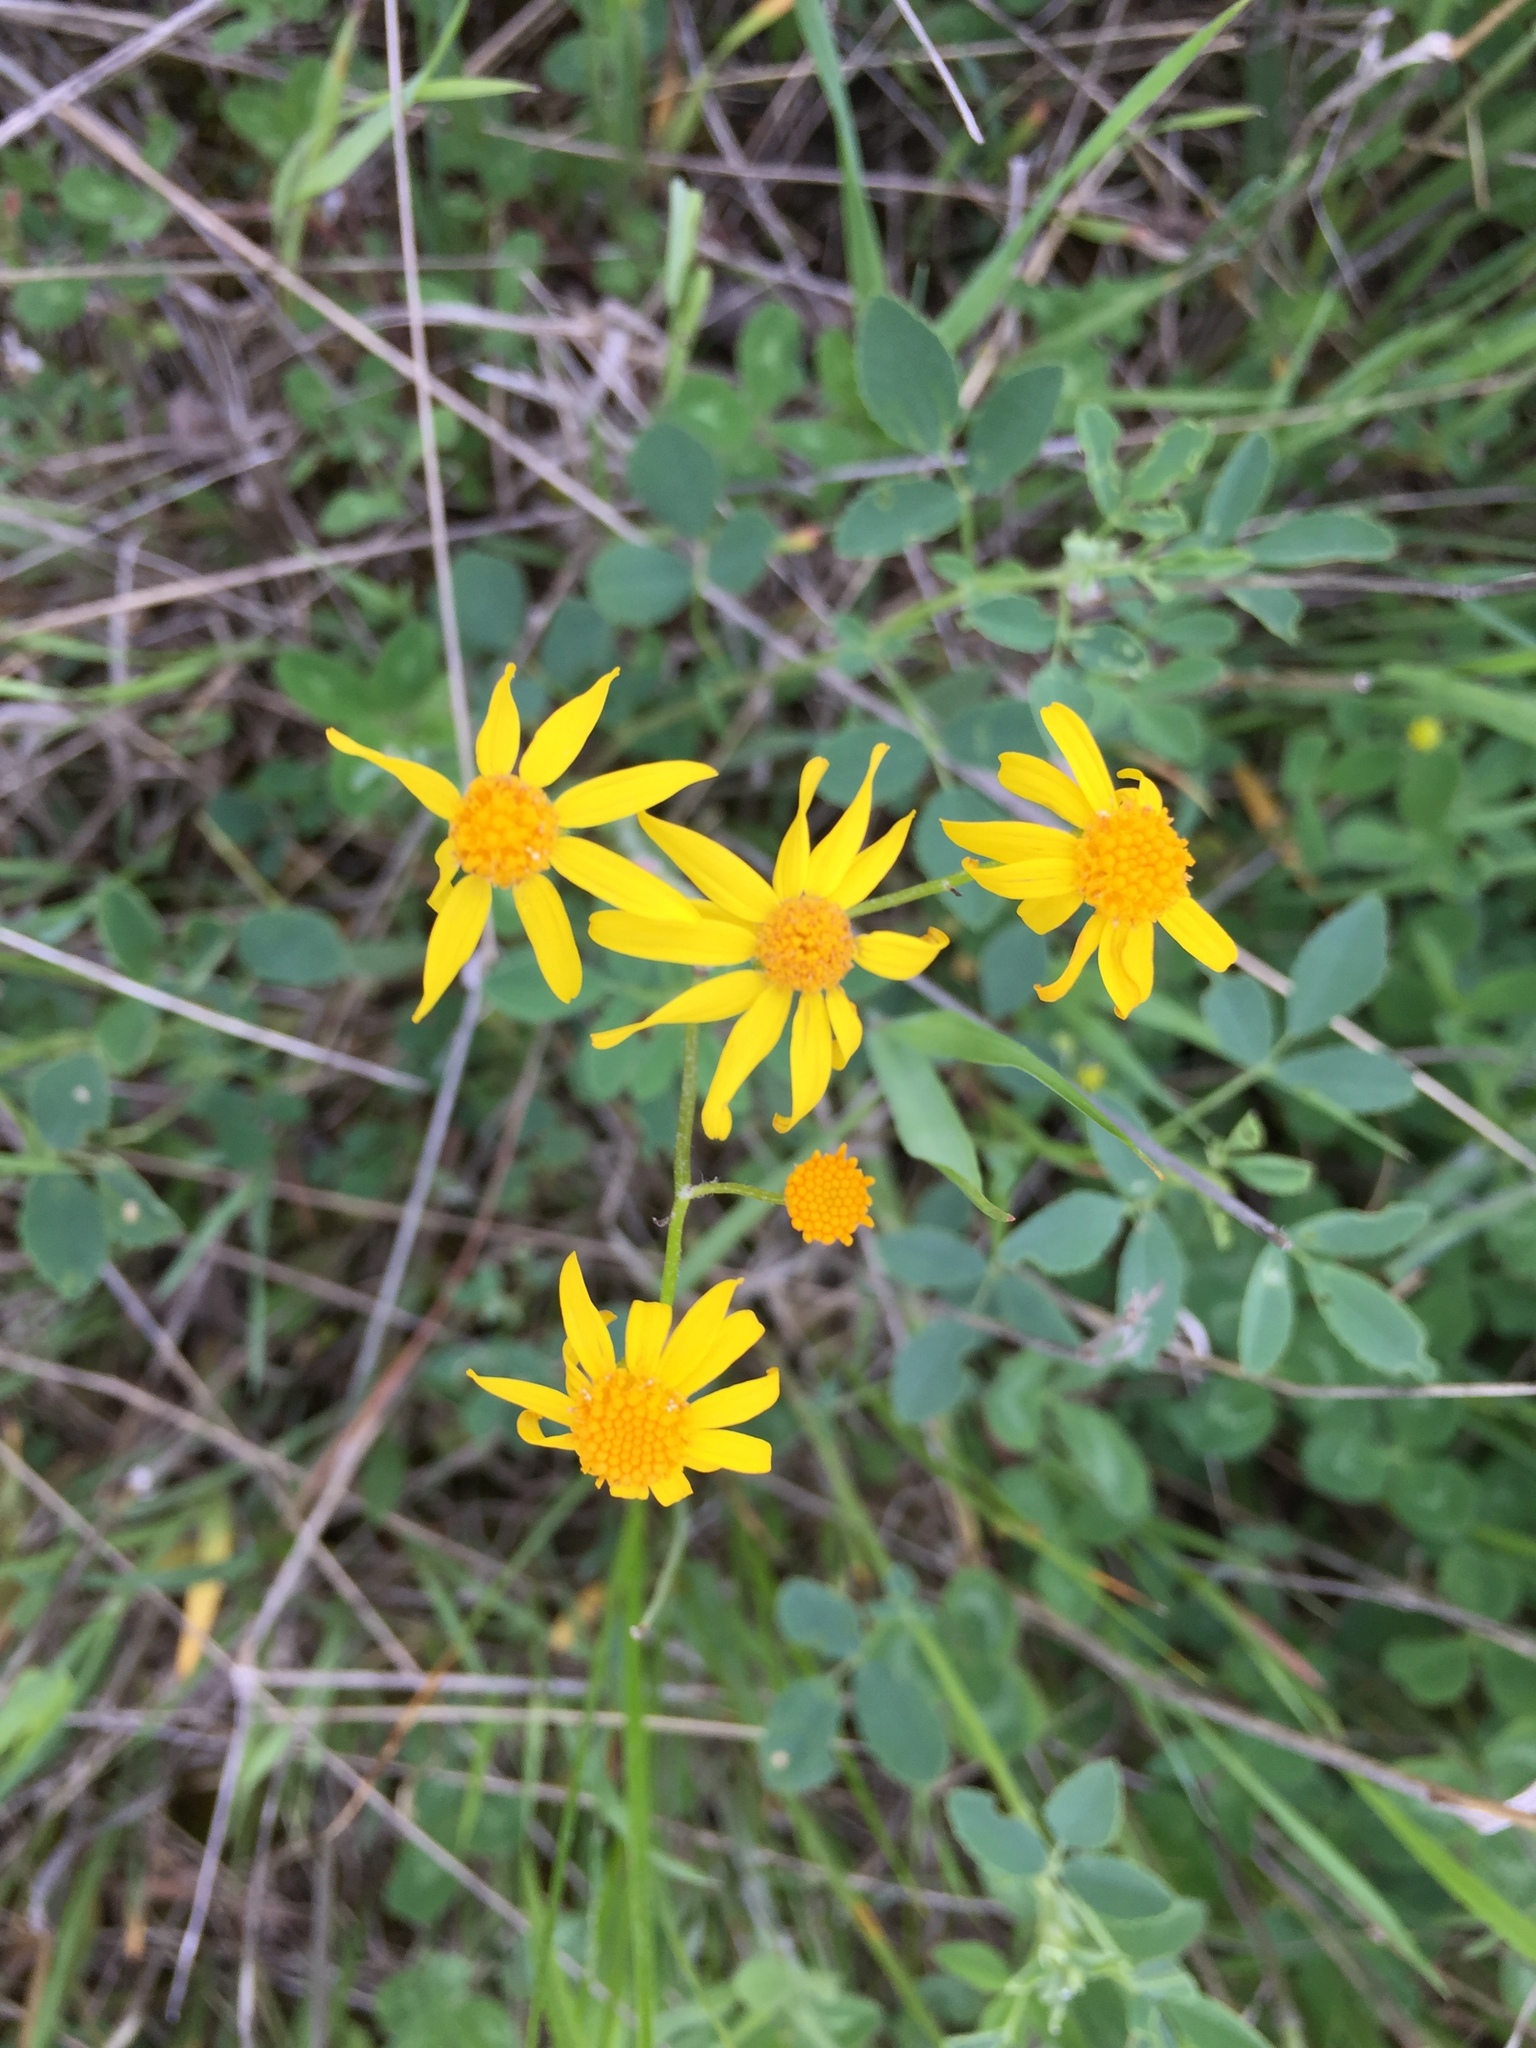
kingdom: Plantae
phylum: Tracheophyta
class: Magnoliopsida
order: Asterales
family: Asteraceae
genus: Packera
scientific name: Packera paupercula
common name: Balsam groundsel
